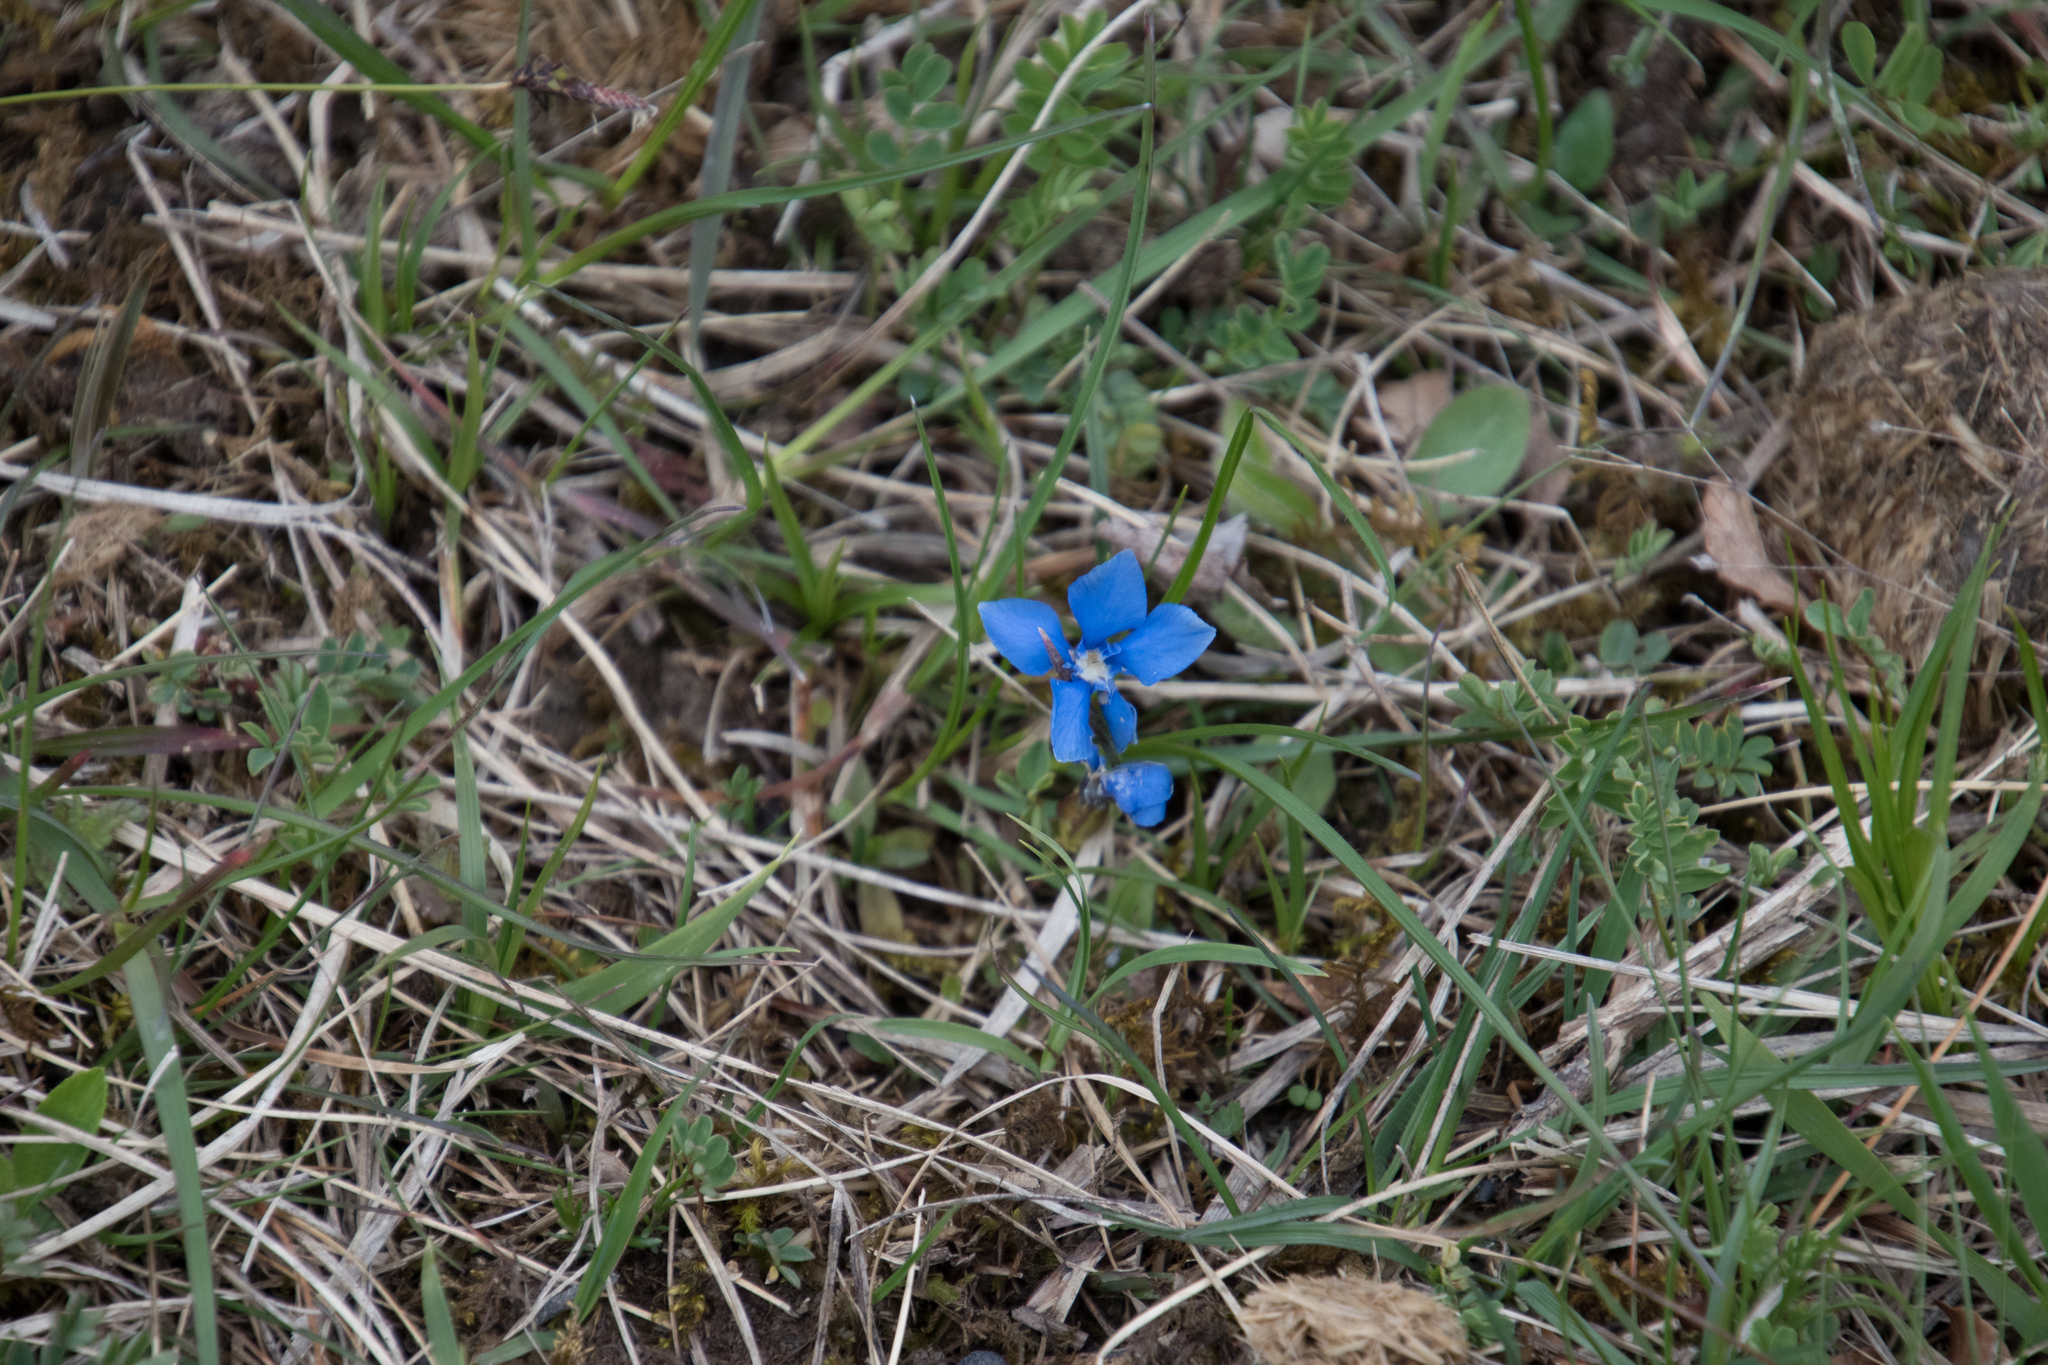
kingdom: Plantae
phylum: Tracheophyta
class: Magnoliopsida
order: Gentianales
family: Gentianaceae
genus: Gentiana
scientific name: Gentiana verna
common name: Spring gentian
